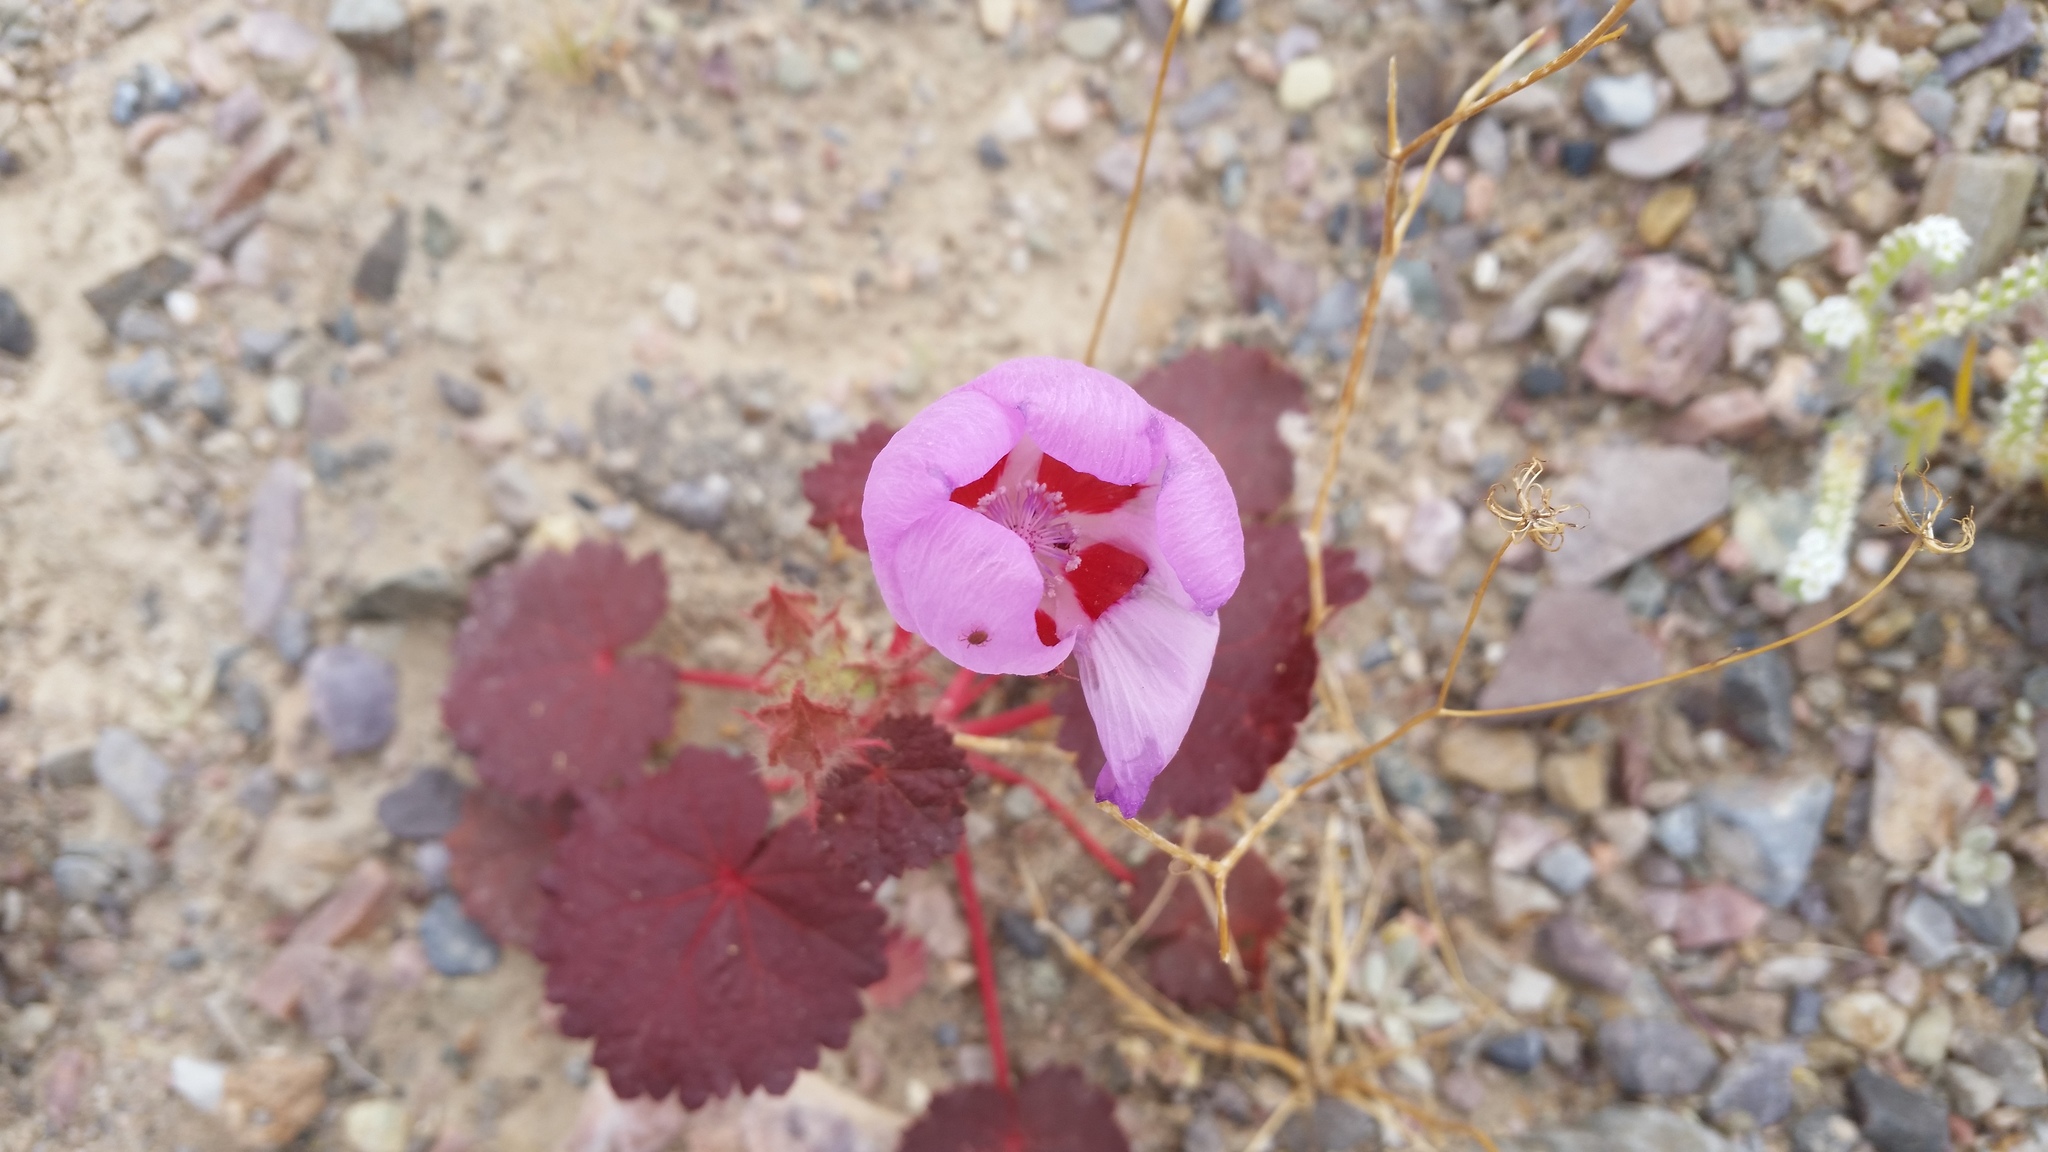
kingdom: Plantae
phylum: Tracheophyta
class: Magnoliopsida
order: Malvales
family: Malvaceae
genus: Eremalche
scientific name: Eremalche rotundifolia
